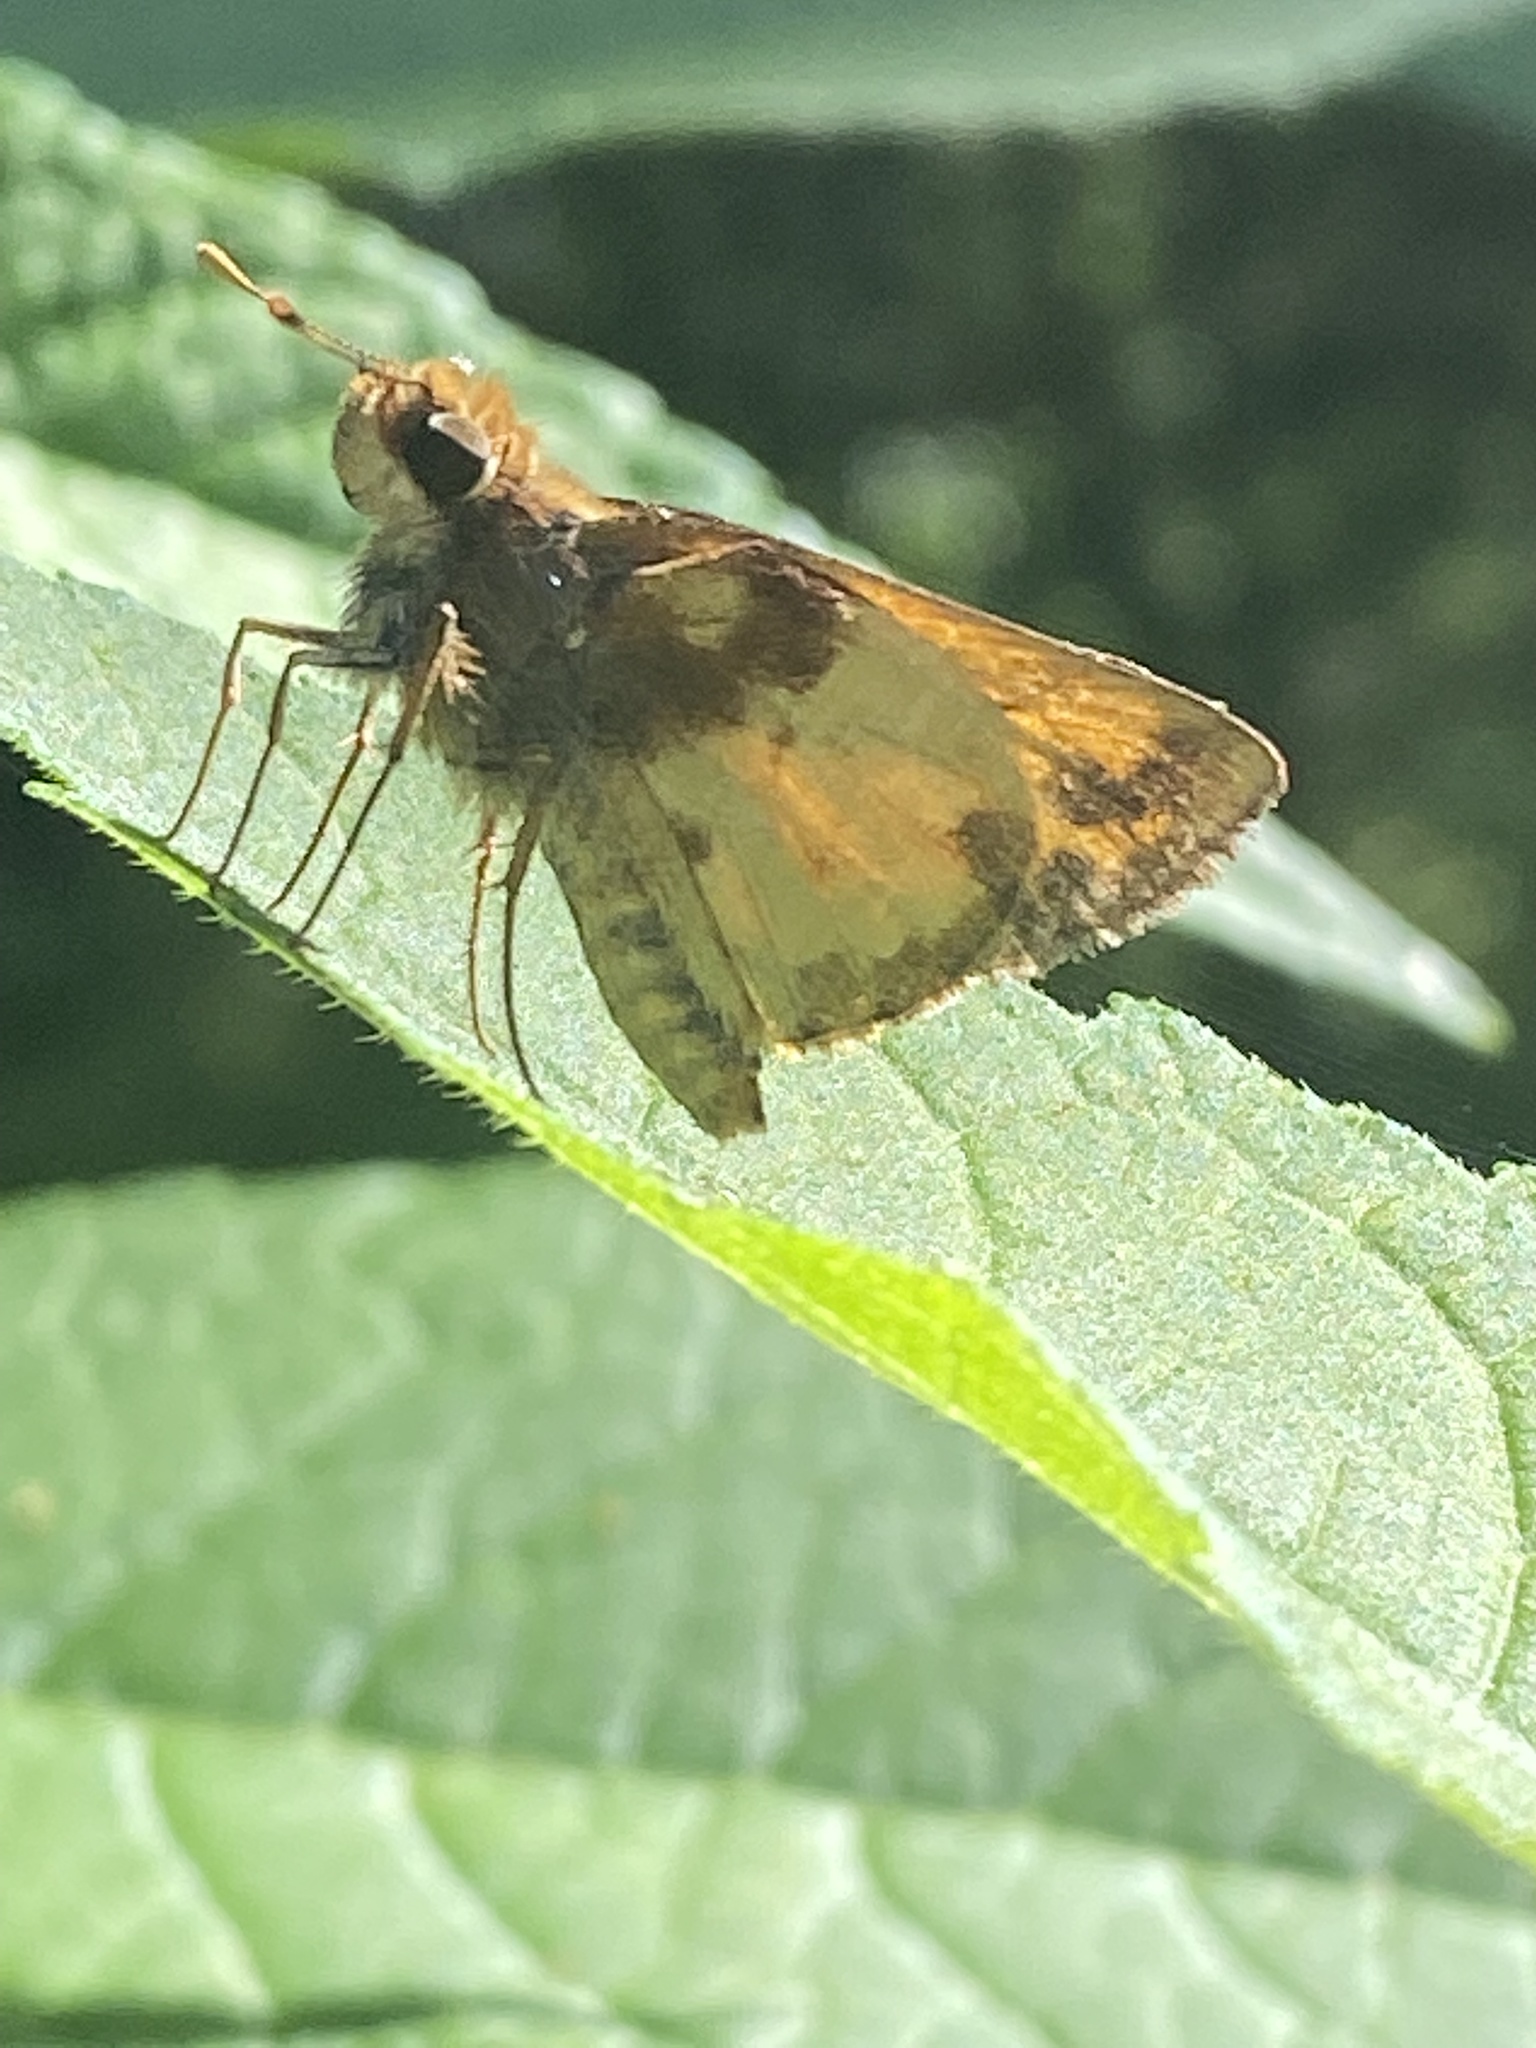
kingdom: Animalia
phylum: Arthropoda
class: Insecta
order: Lepidoptera
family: Hesperiidae
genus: Lon
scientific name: Lon zabulon
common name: Zabulon skipper
